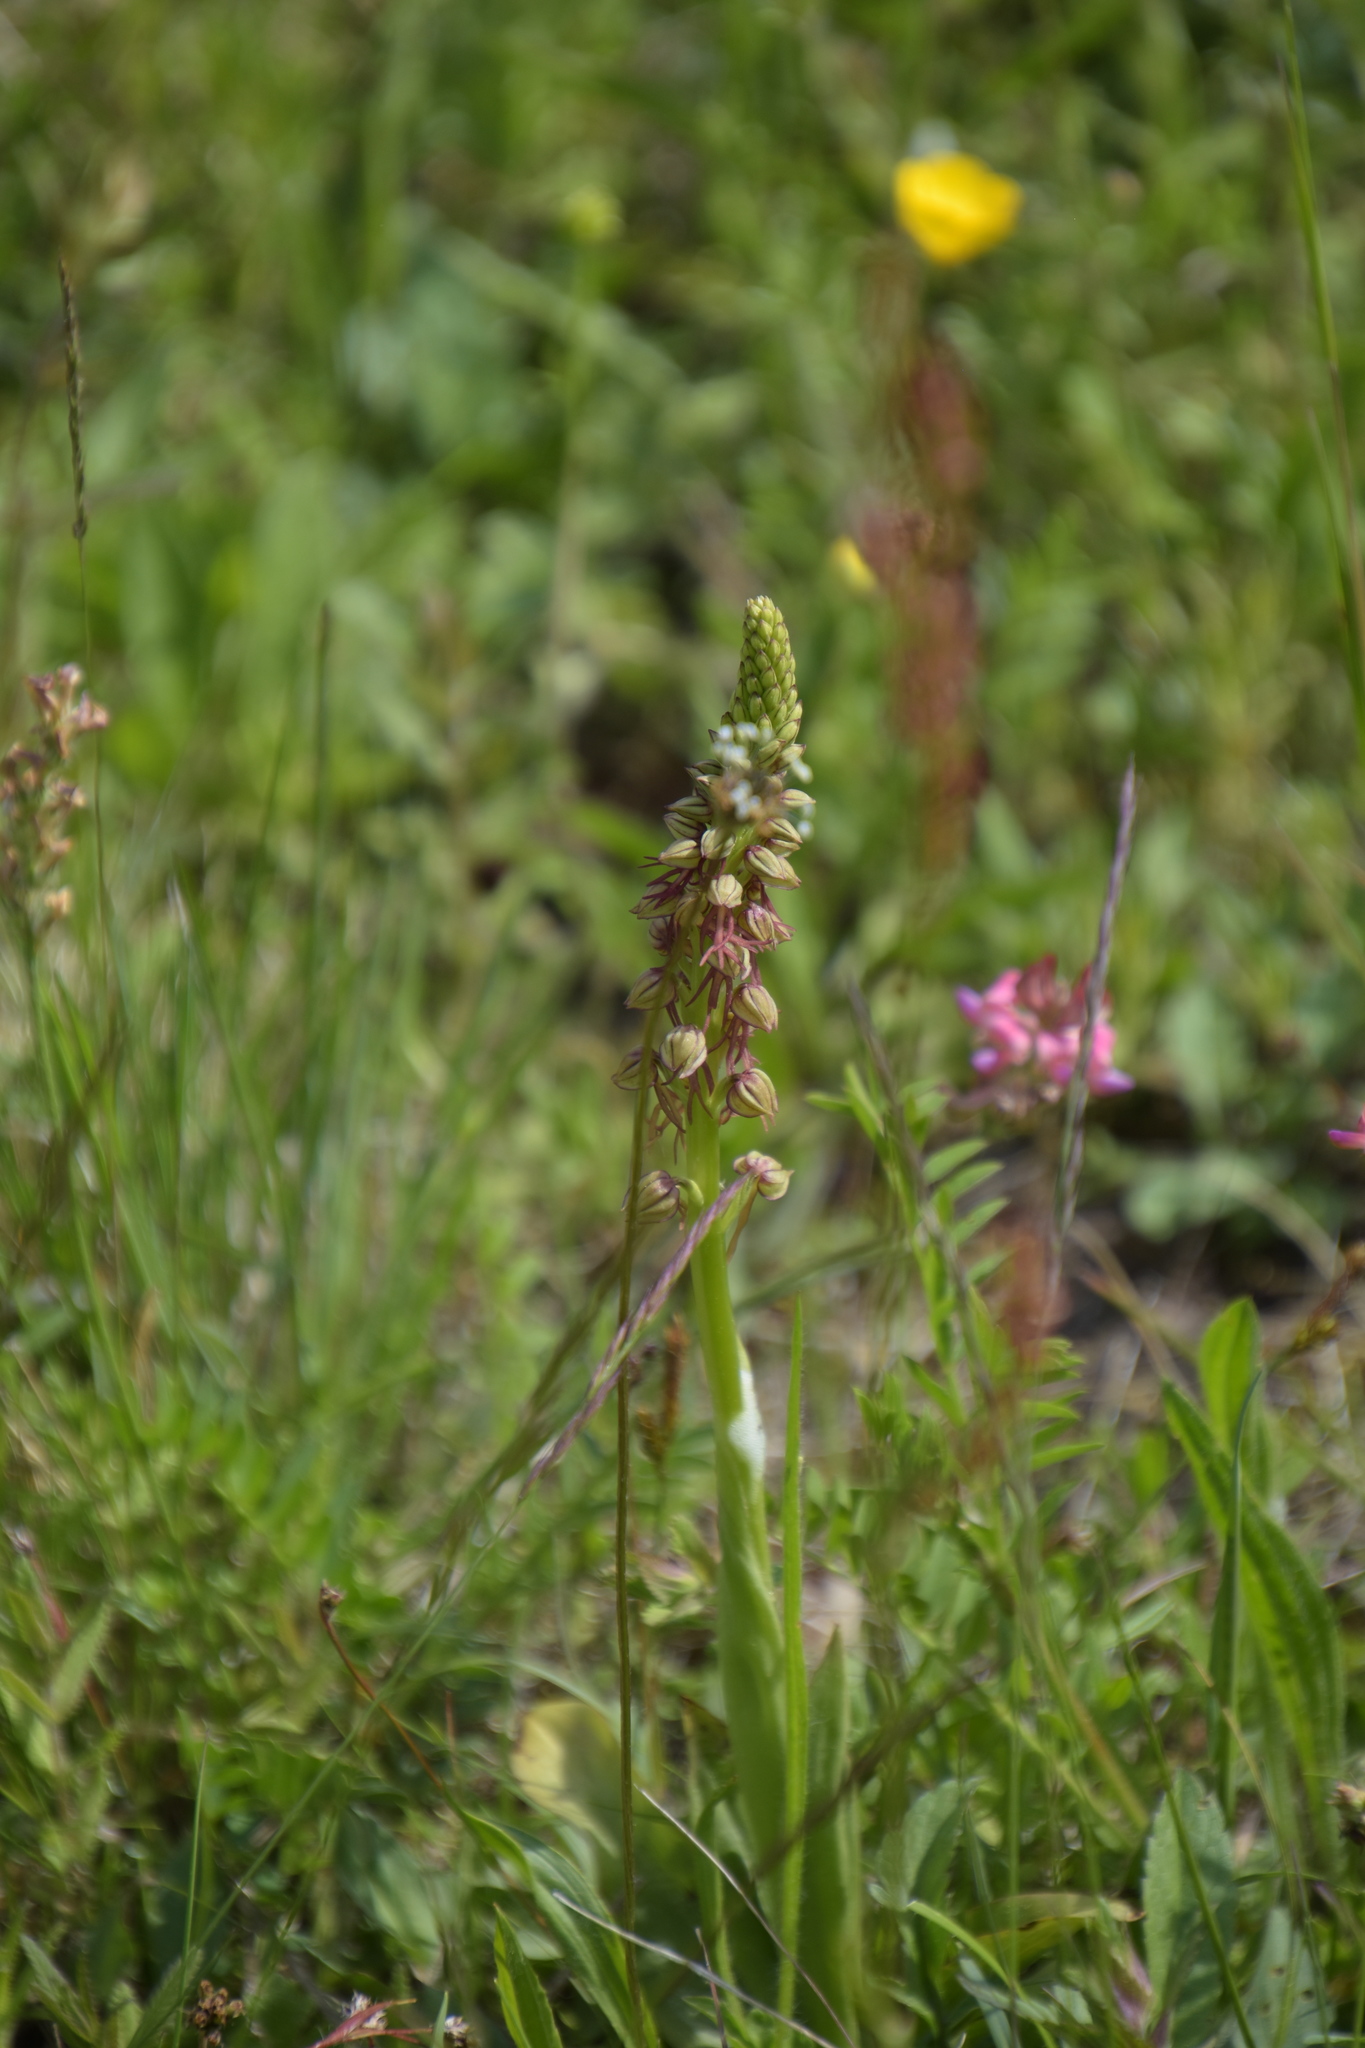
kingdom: Plantae
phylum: Tracheophyta
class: Liliopsida
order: Asparagales
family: Orchidaceae
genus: Orchis
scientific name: Orchis anthropophora
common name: Man orchid
